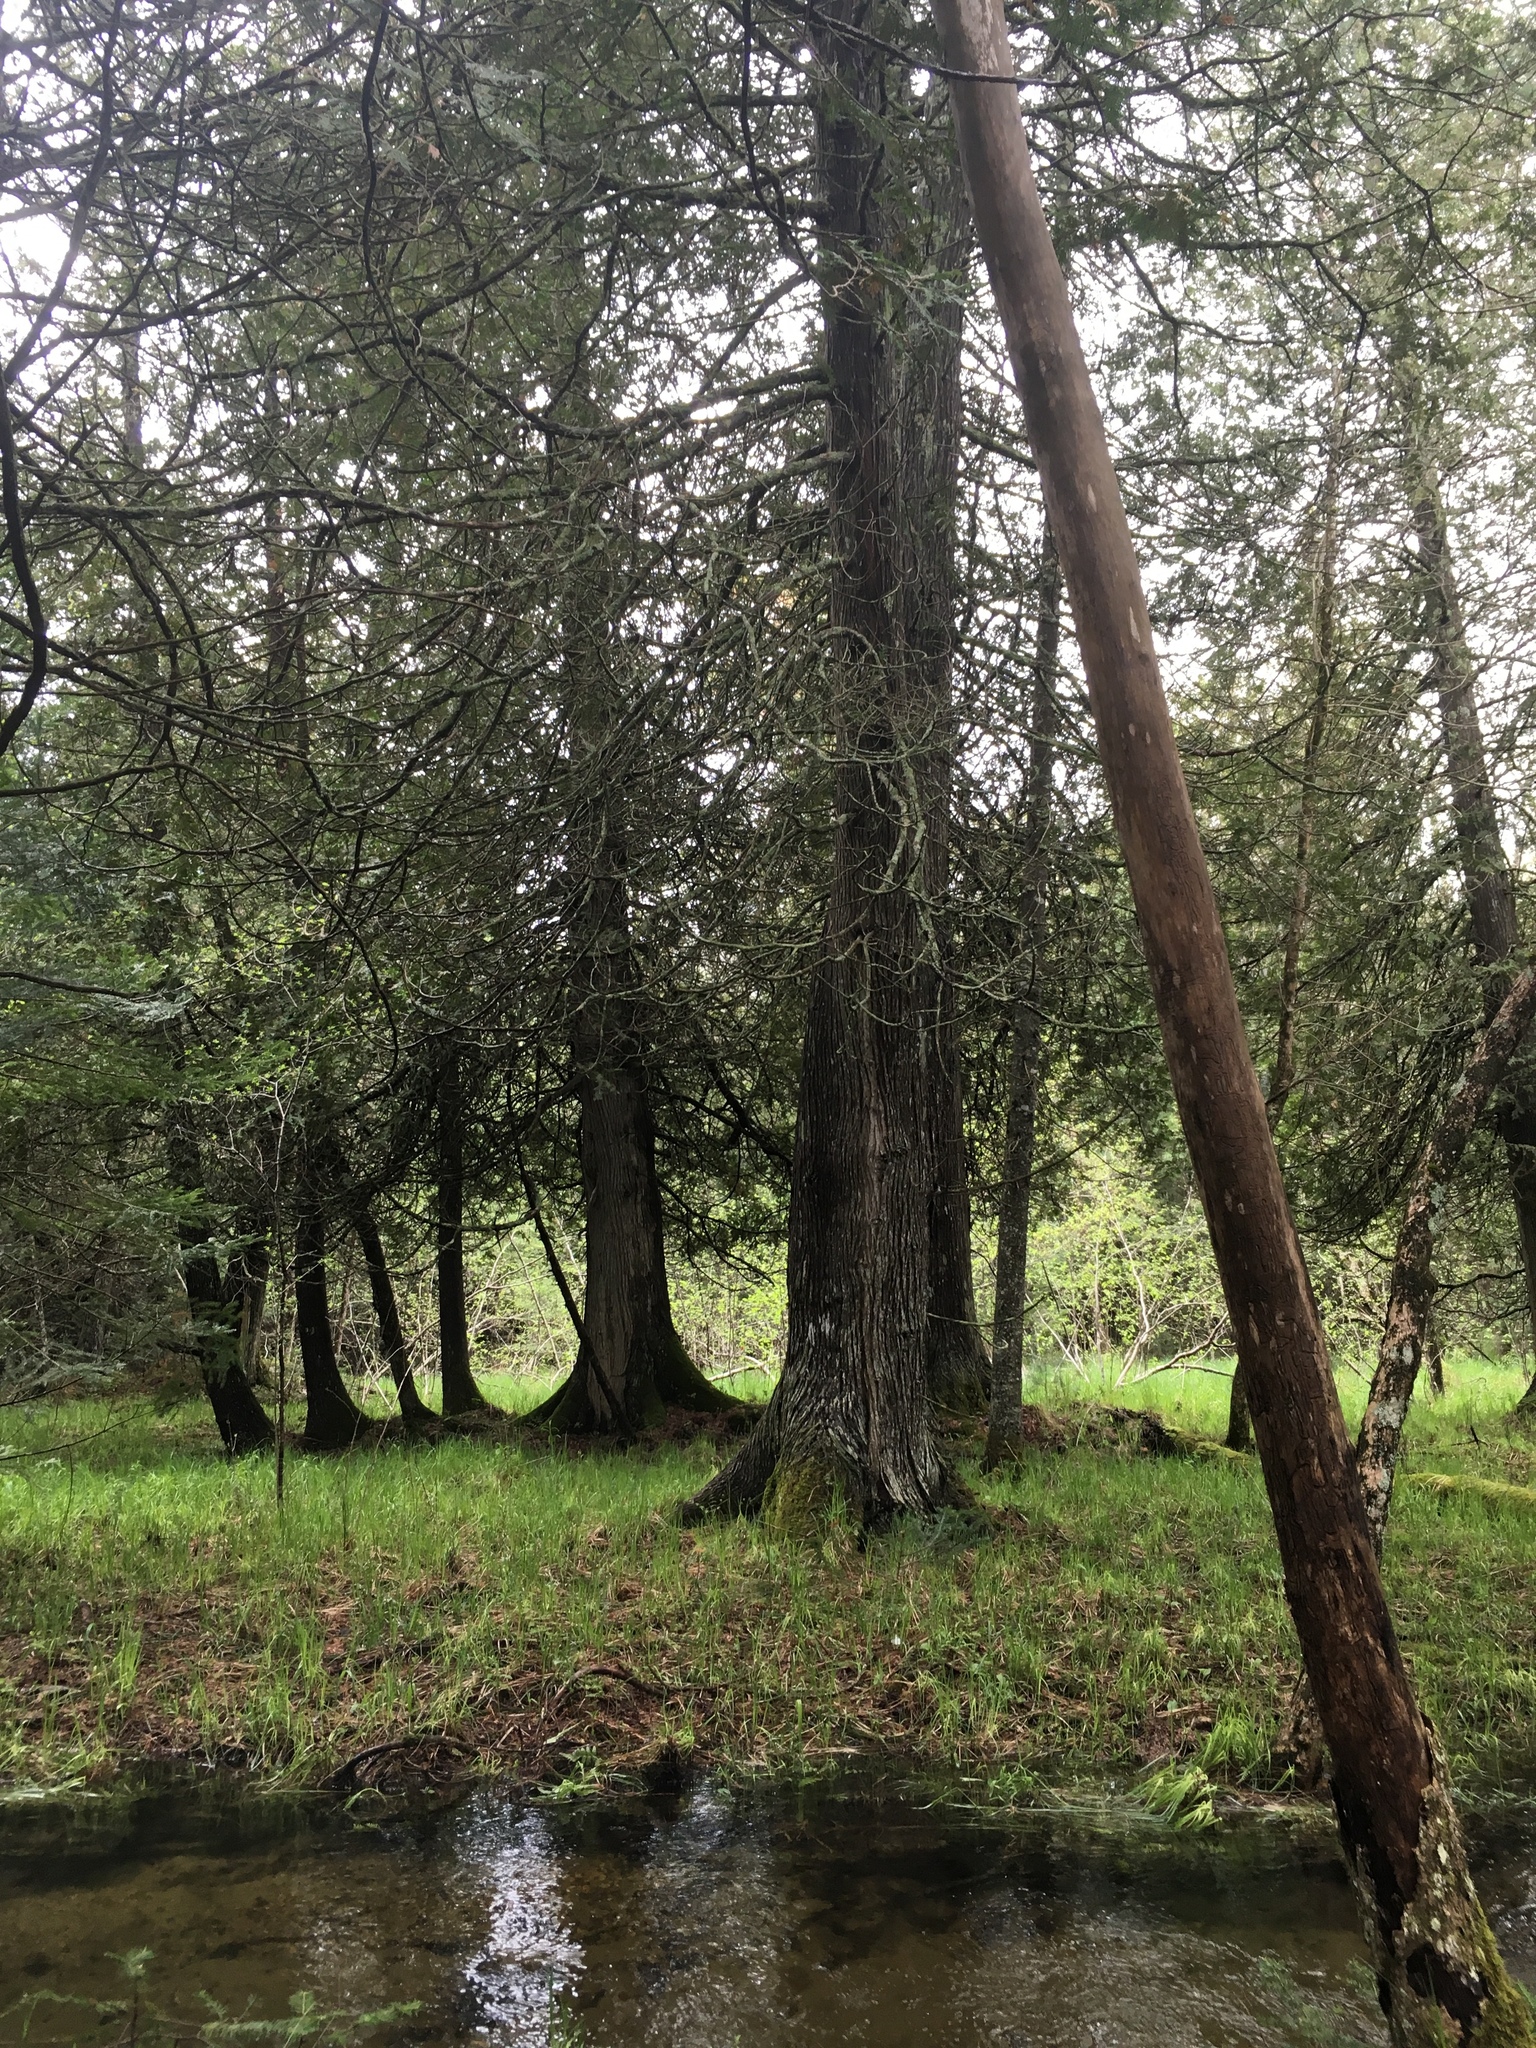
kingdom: Plantae
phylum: Tracheophyta
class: Pinopsida
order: Pinales
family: Cupressaceae
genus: Thuja
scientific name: Thuja occidentalis
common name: Northern white-cedar
